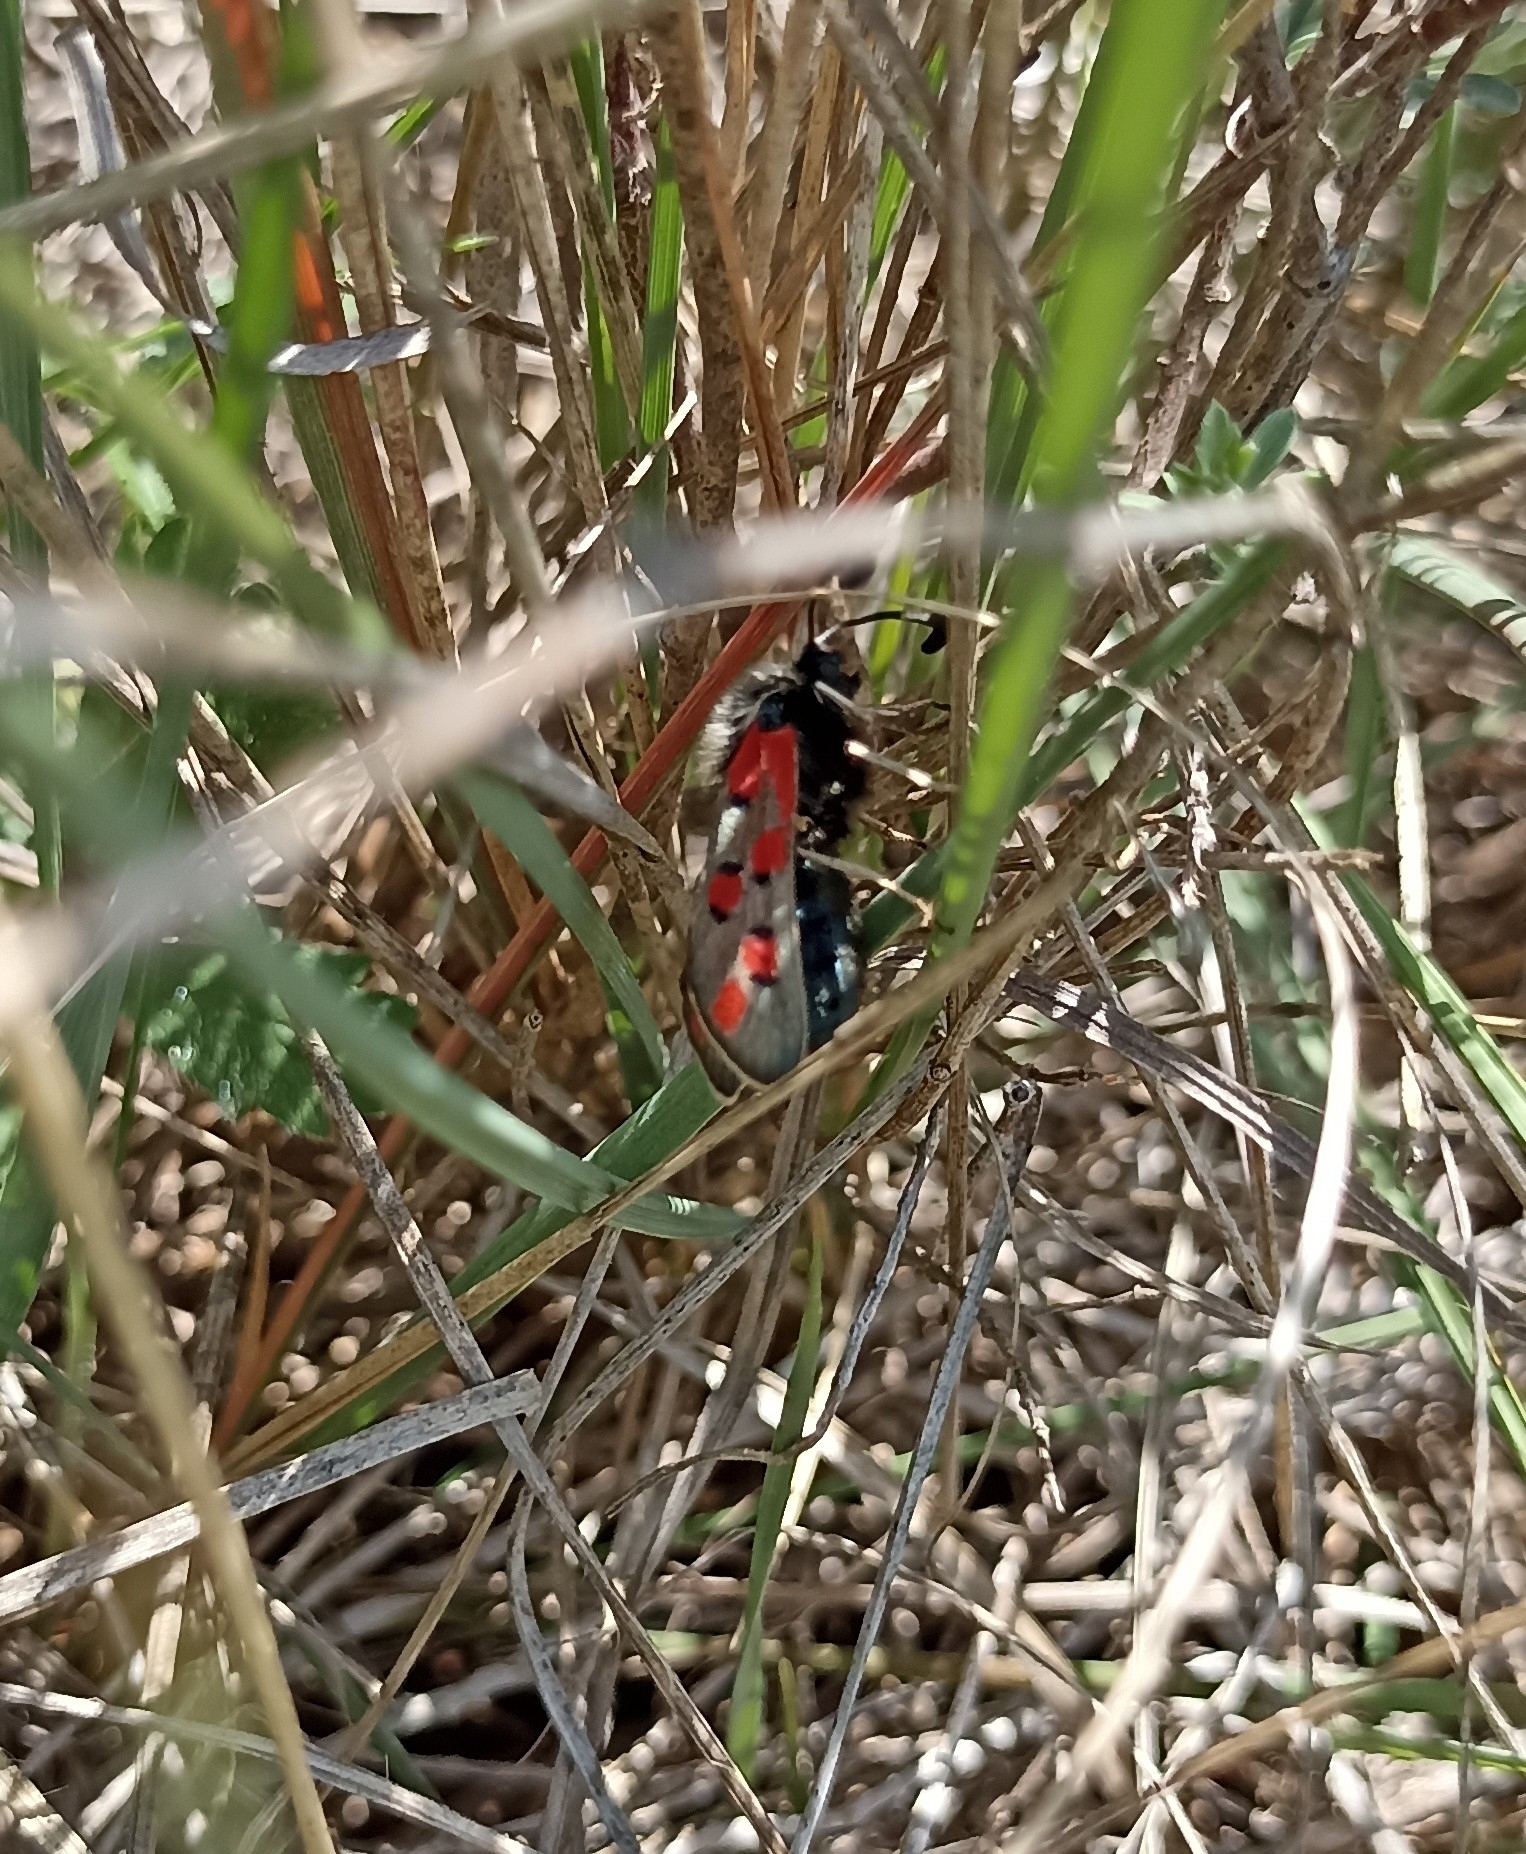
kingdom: Animalia
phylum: Arthropoda
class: Insecta
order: Lepidoptera
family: Zygaenidae
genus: Zygaena
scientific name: Zygaena rhadamanthus
